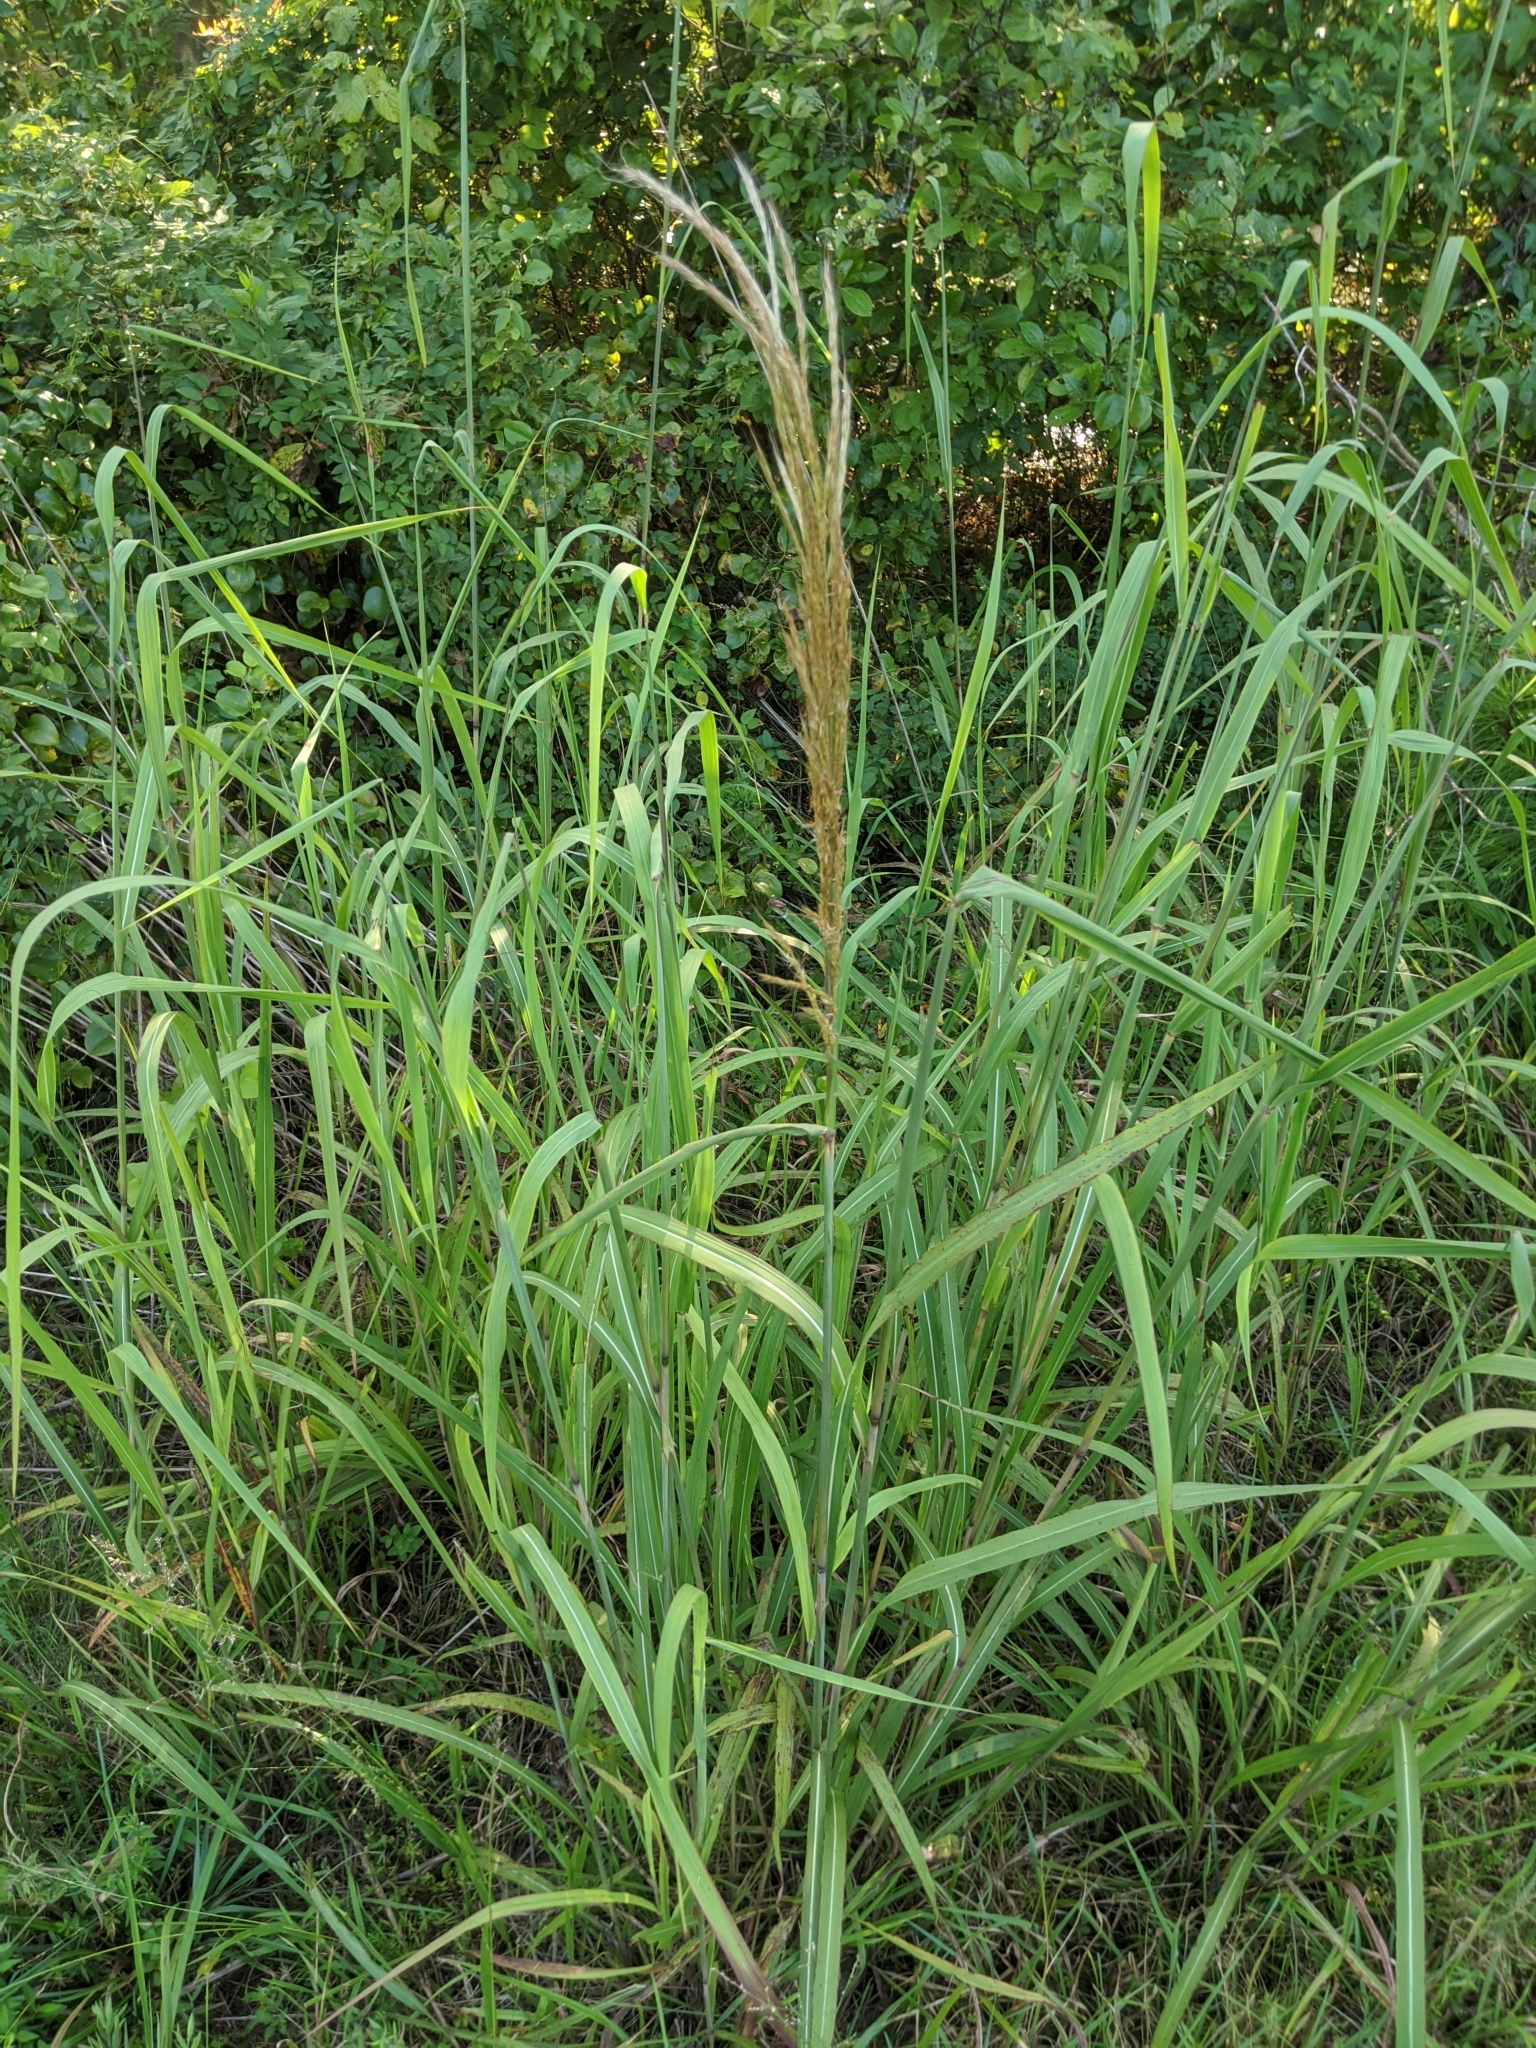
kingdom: Plantae
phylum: Tracheophyta
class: Liliopsida
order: Poales
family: Poaceae
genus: Erianthus
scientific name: Erianthus giganteus
